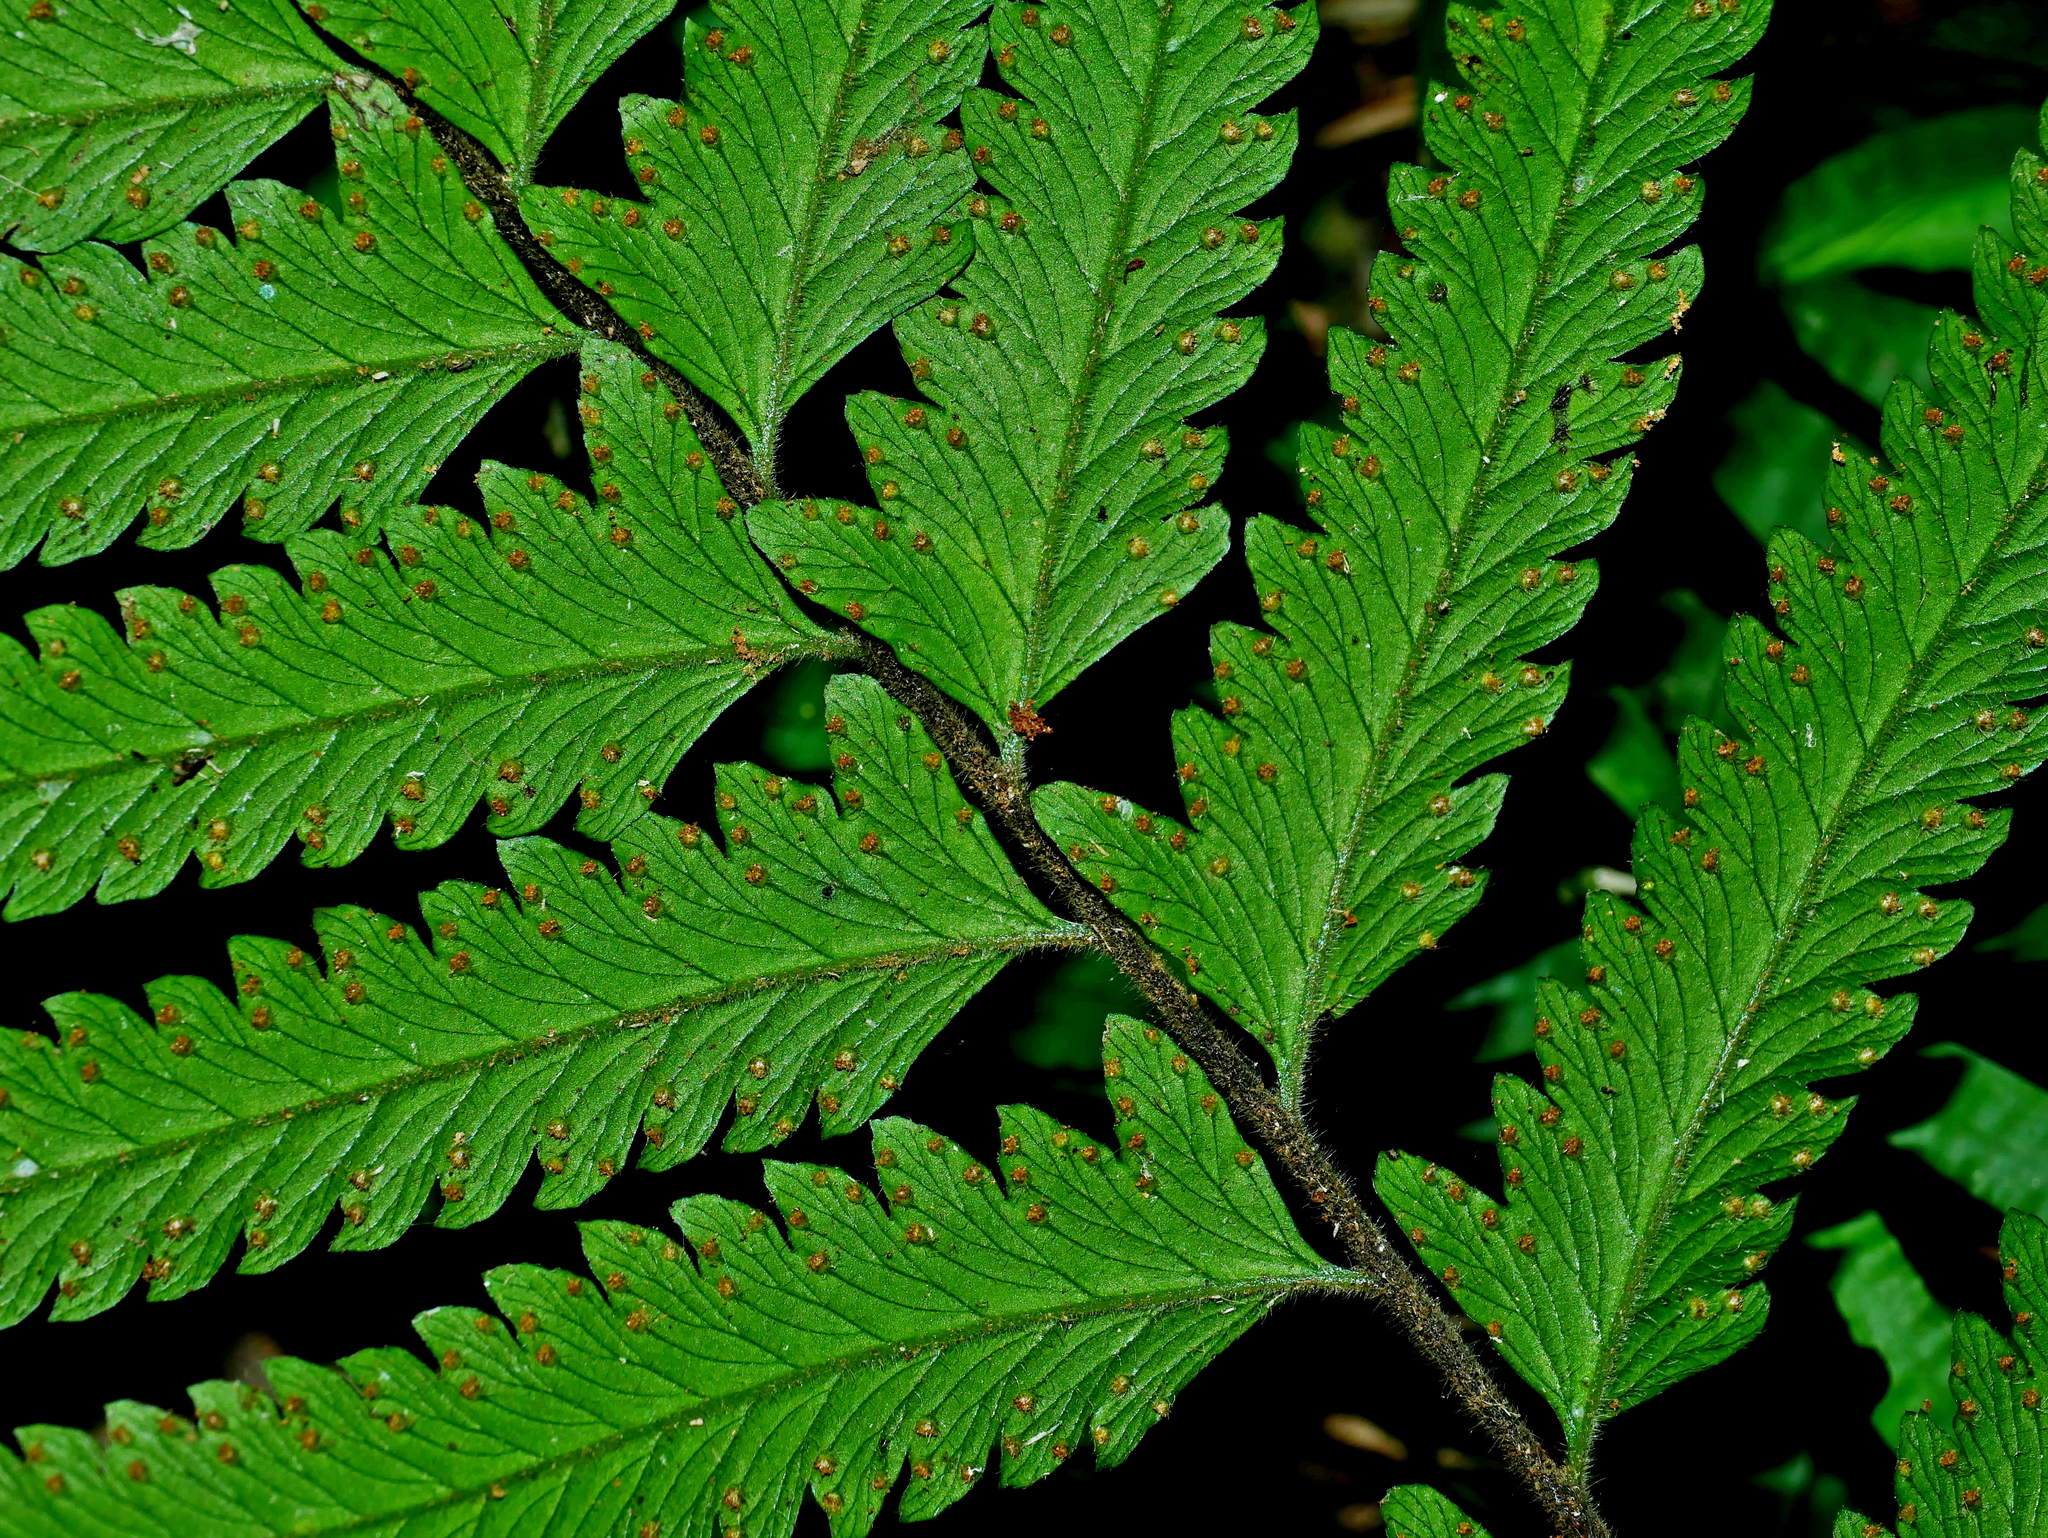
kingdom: Plantae
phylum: Tracheophyta
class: Polypodiopsida
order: Polypodiales
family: Dennstaedtiaceae
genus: Microlepia
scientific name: Microlepia bipinnata
